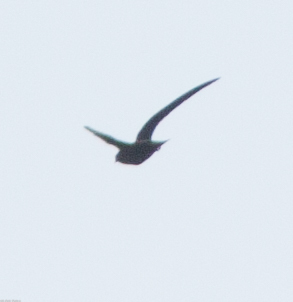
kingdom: Animalia
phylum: Chordata
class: Aves
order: Apodiformes
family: Apodidae
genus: Cypseloides
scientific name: Cypseloides niger
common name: Black swift
